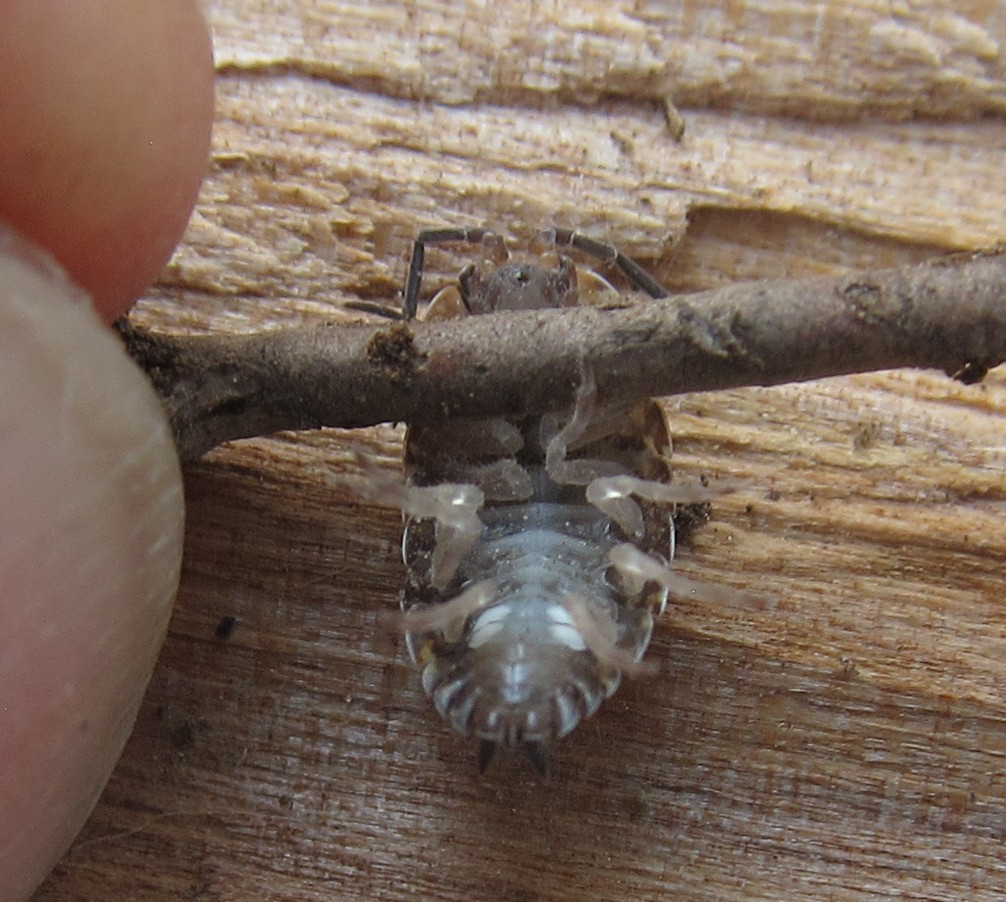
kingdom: Animalia
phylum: Arthropoda
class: Malacostraca
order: Isopoda
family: Porcellionidae
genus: Porcellio
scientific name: Porcellio scaber
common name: Common rough woodlouse
